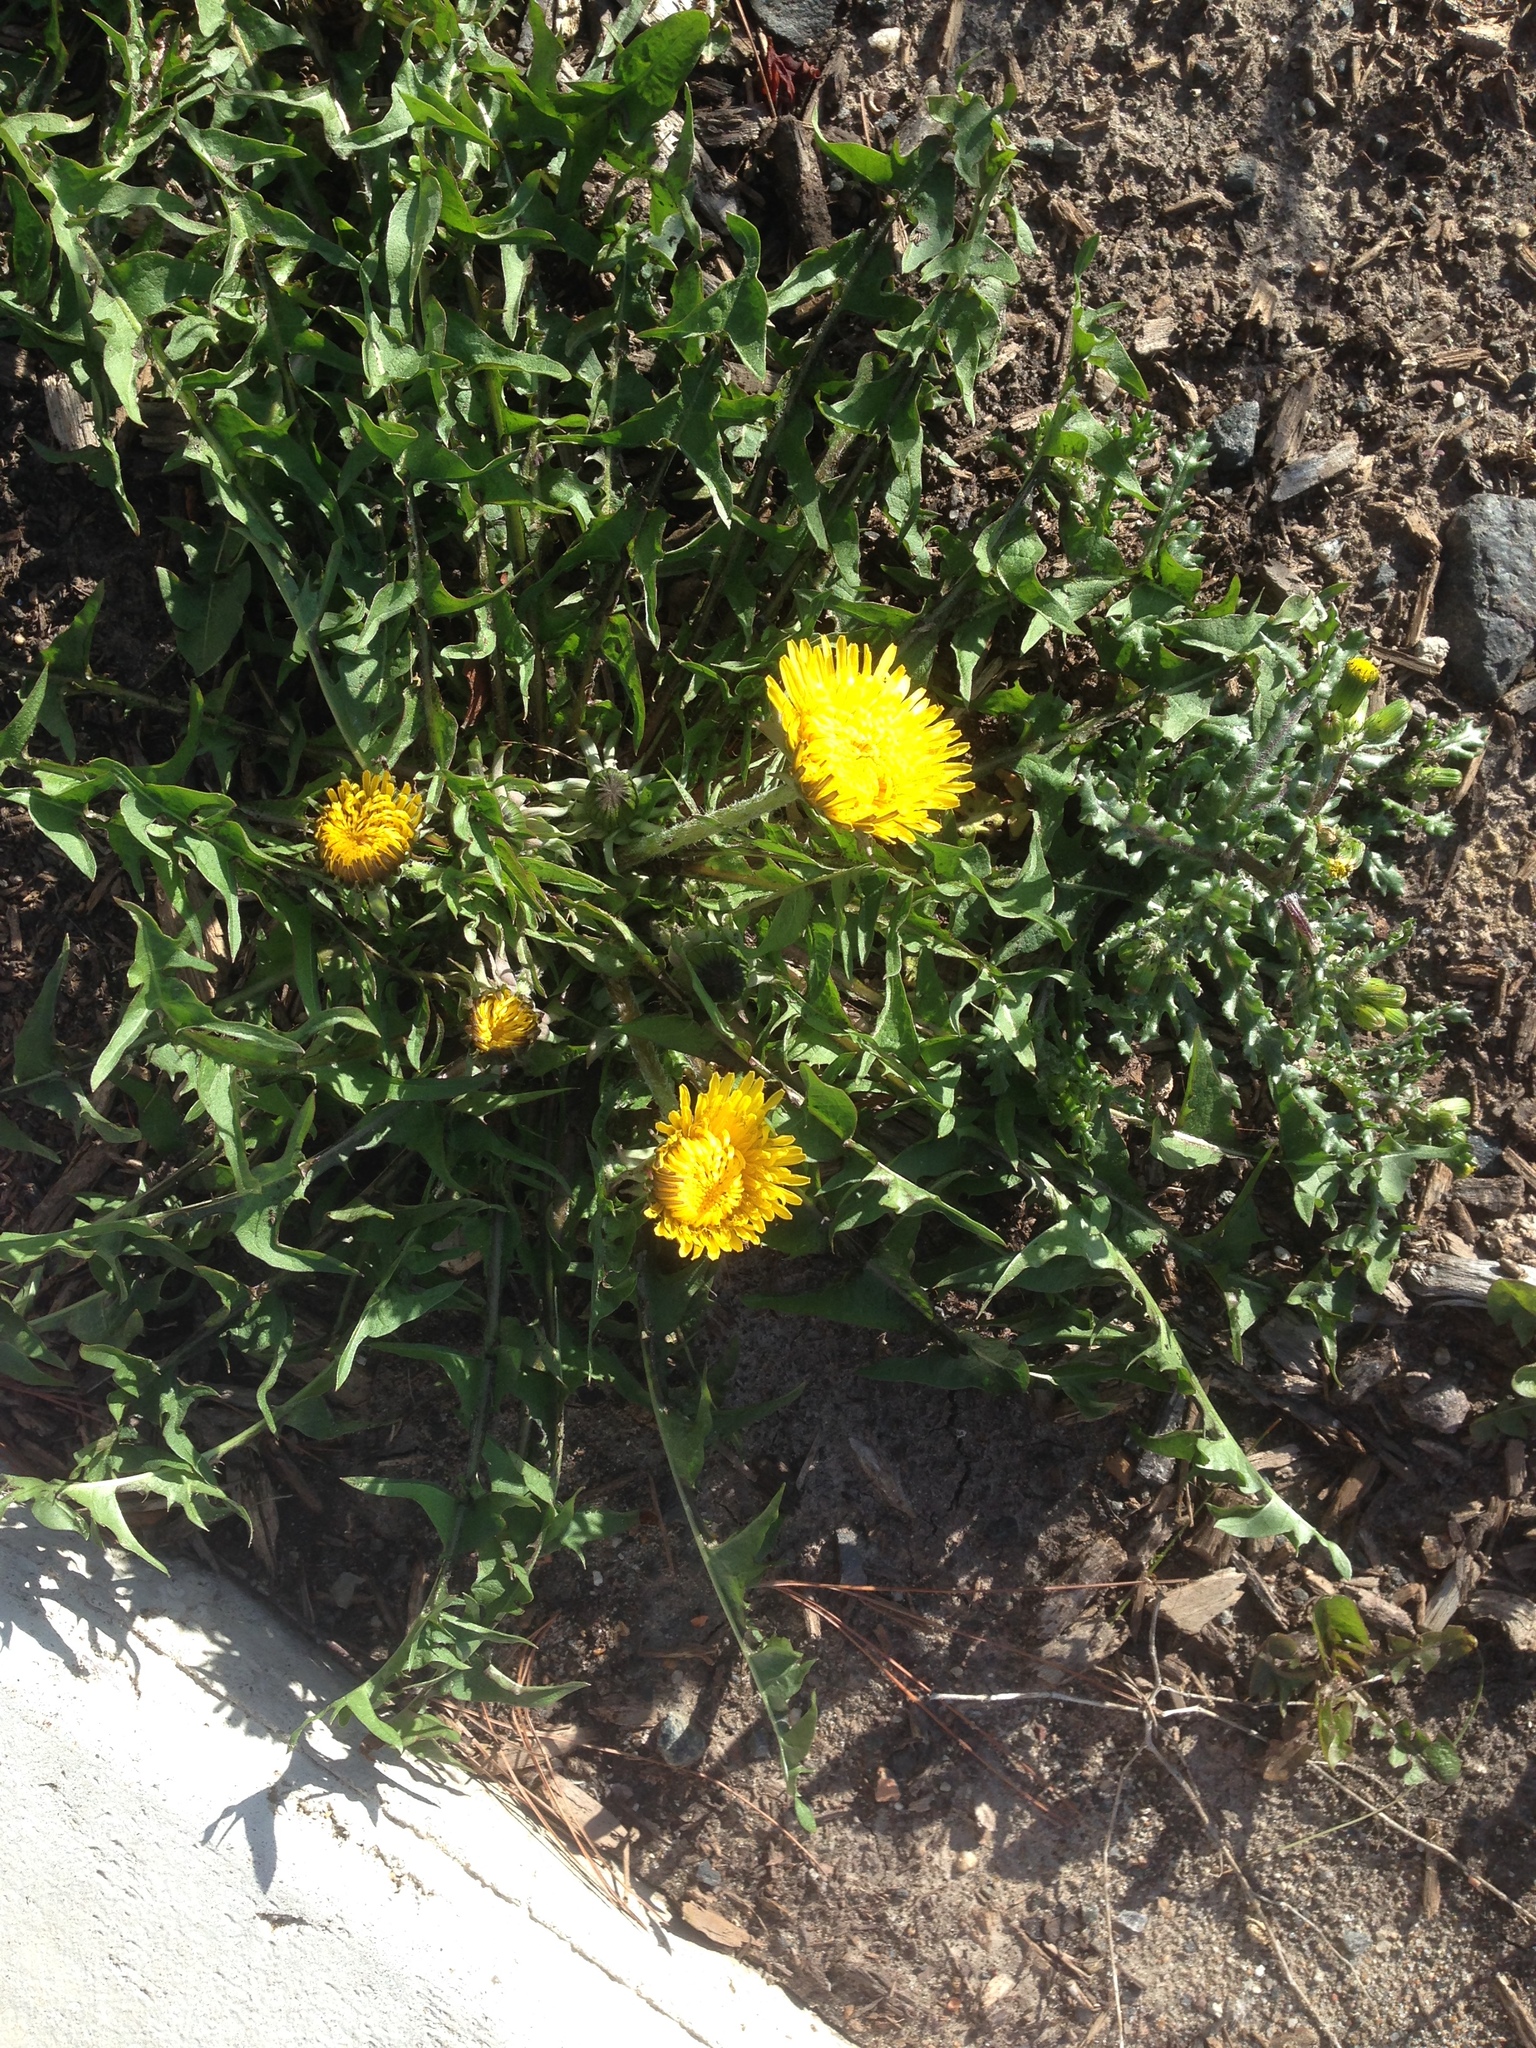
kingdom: Plantae
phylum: Tracheophyta
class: Magnoliopsida
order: Asterales
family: Asteraceae
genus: Taraxacum
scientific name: Taraxacum officinale
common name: Common dandelion
